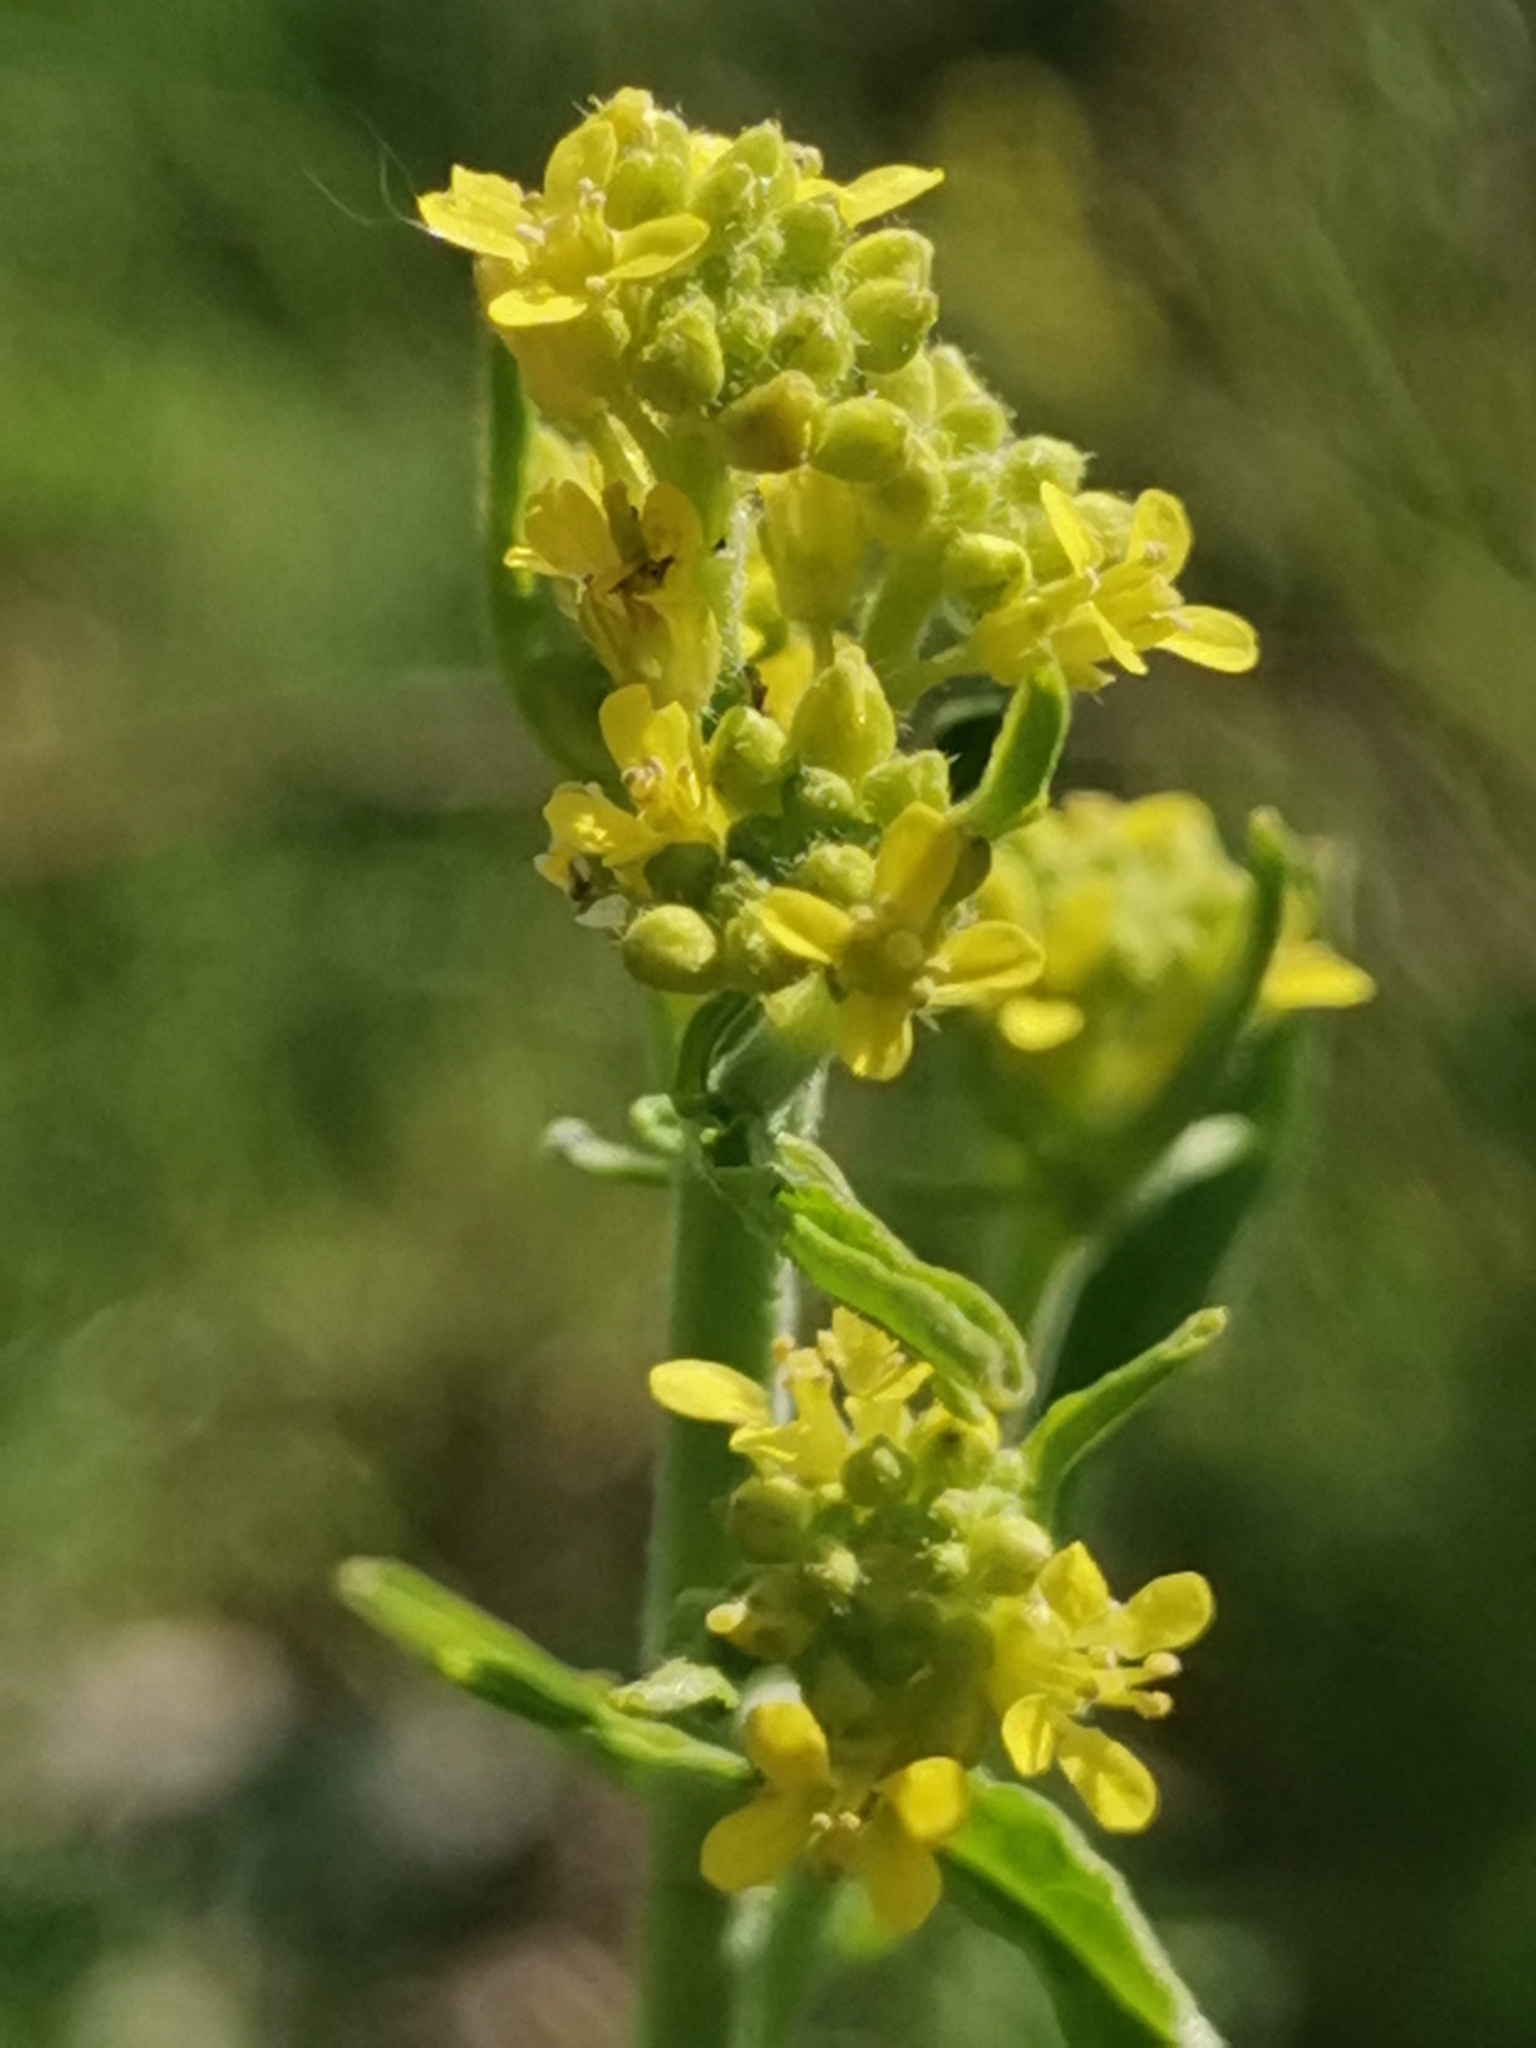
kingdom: Plantae
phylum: Tracheophyta
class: Magnoliopsida
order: Brassicales
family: Brassicaceae
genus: Sisymbrium
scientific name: Sisymbrium officinale
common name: Hedge mustard
